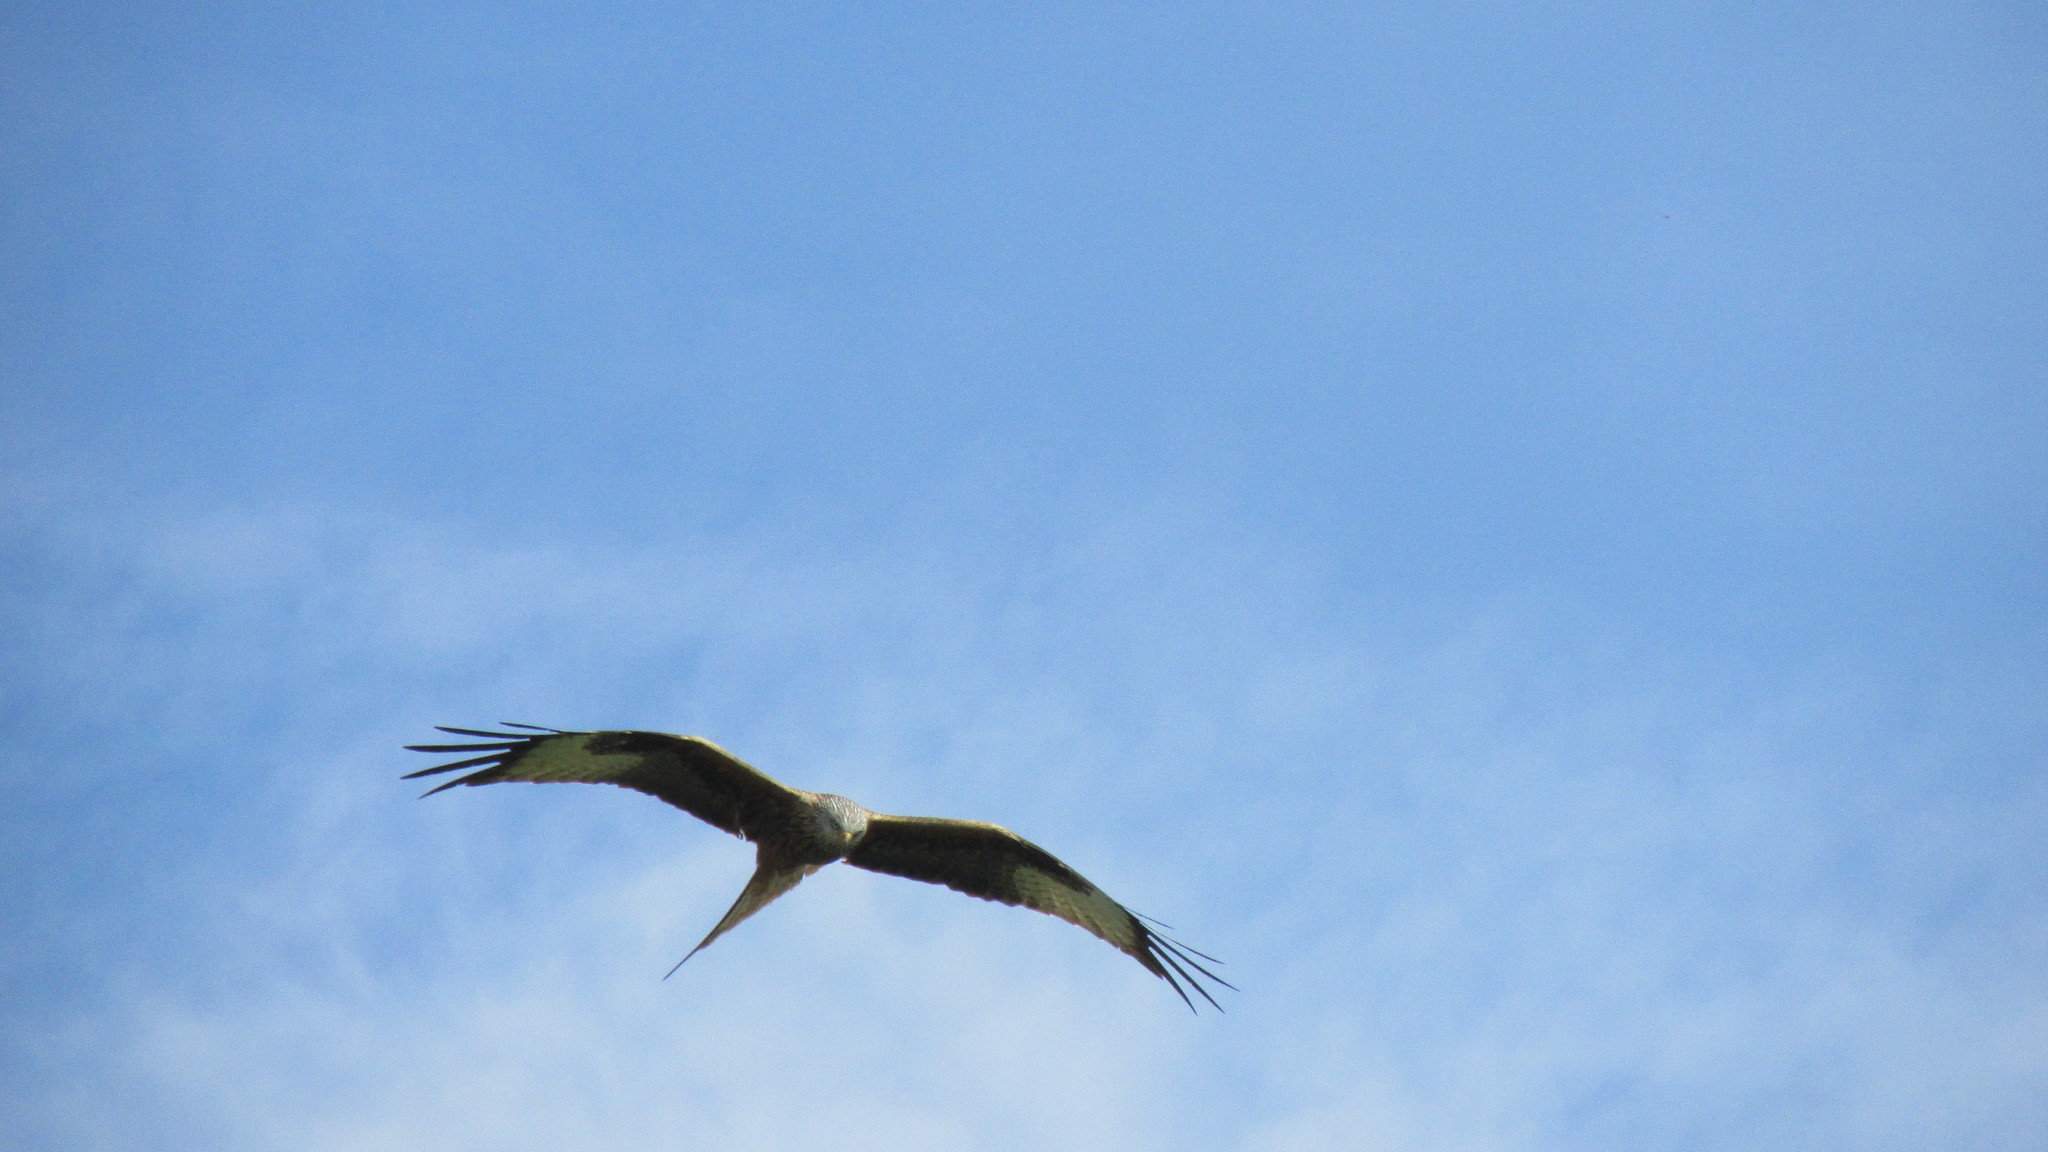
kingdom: Animalia
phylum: Chordata
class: Aves
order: Accipitriformes
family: Accipitridae
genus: Milvus
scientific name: Milvus milvus
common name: Red kite
